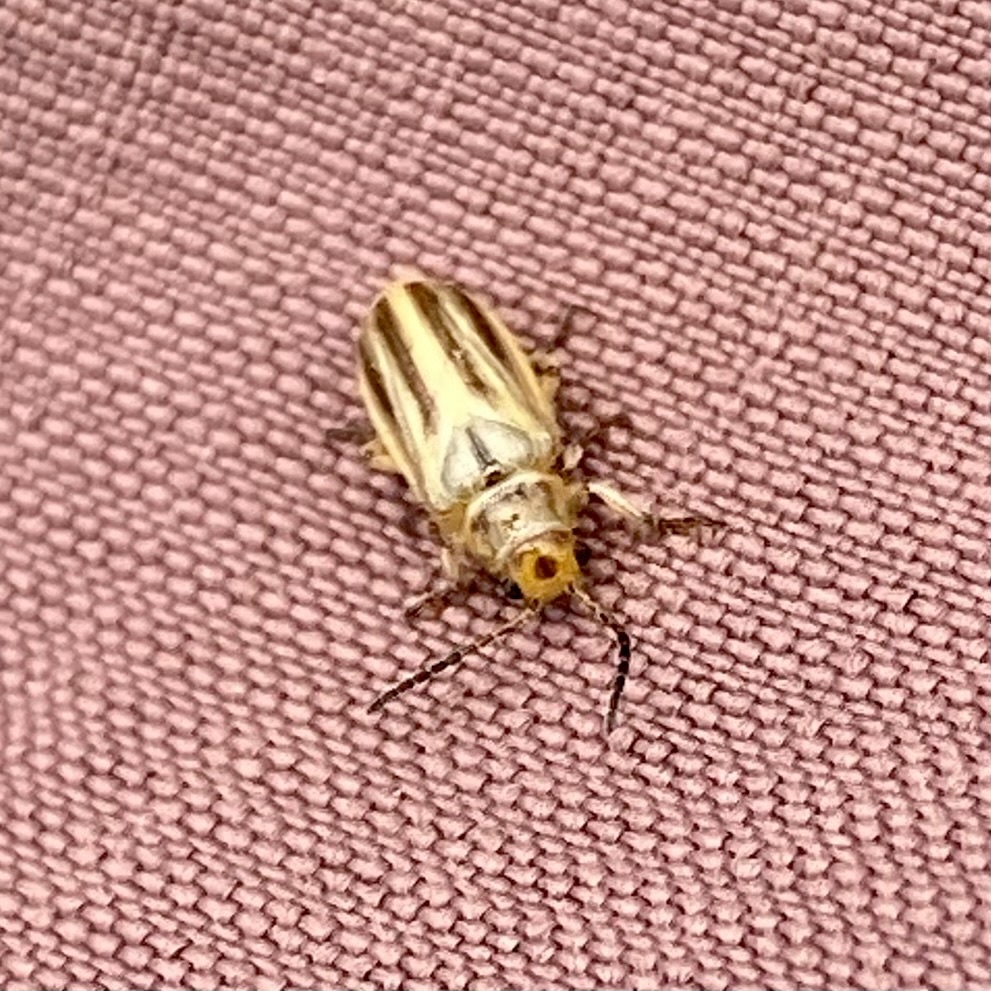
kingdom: Animalia
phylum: Arthropoda
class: Insecta
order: Coleoptera
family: Chrysomelidae
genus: Diorhabda
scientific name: Diorhabda carinulata
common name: Tamarisk leaf beetle
